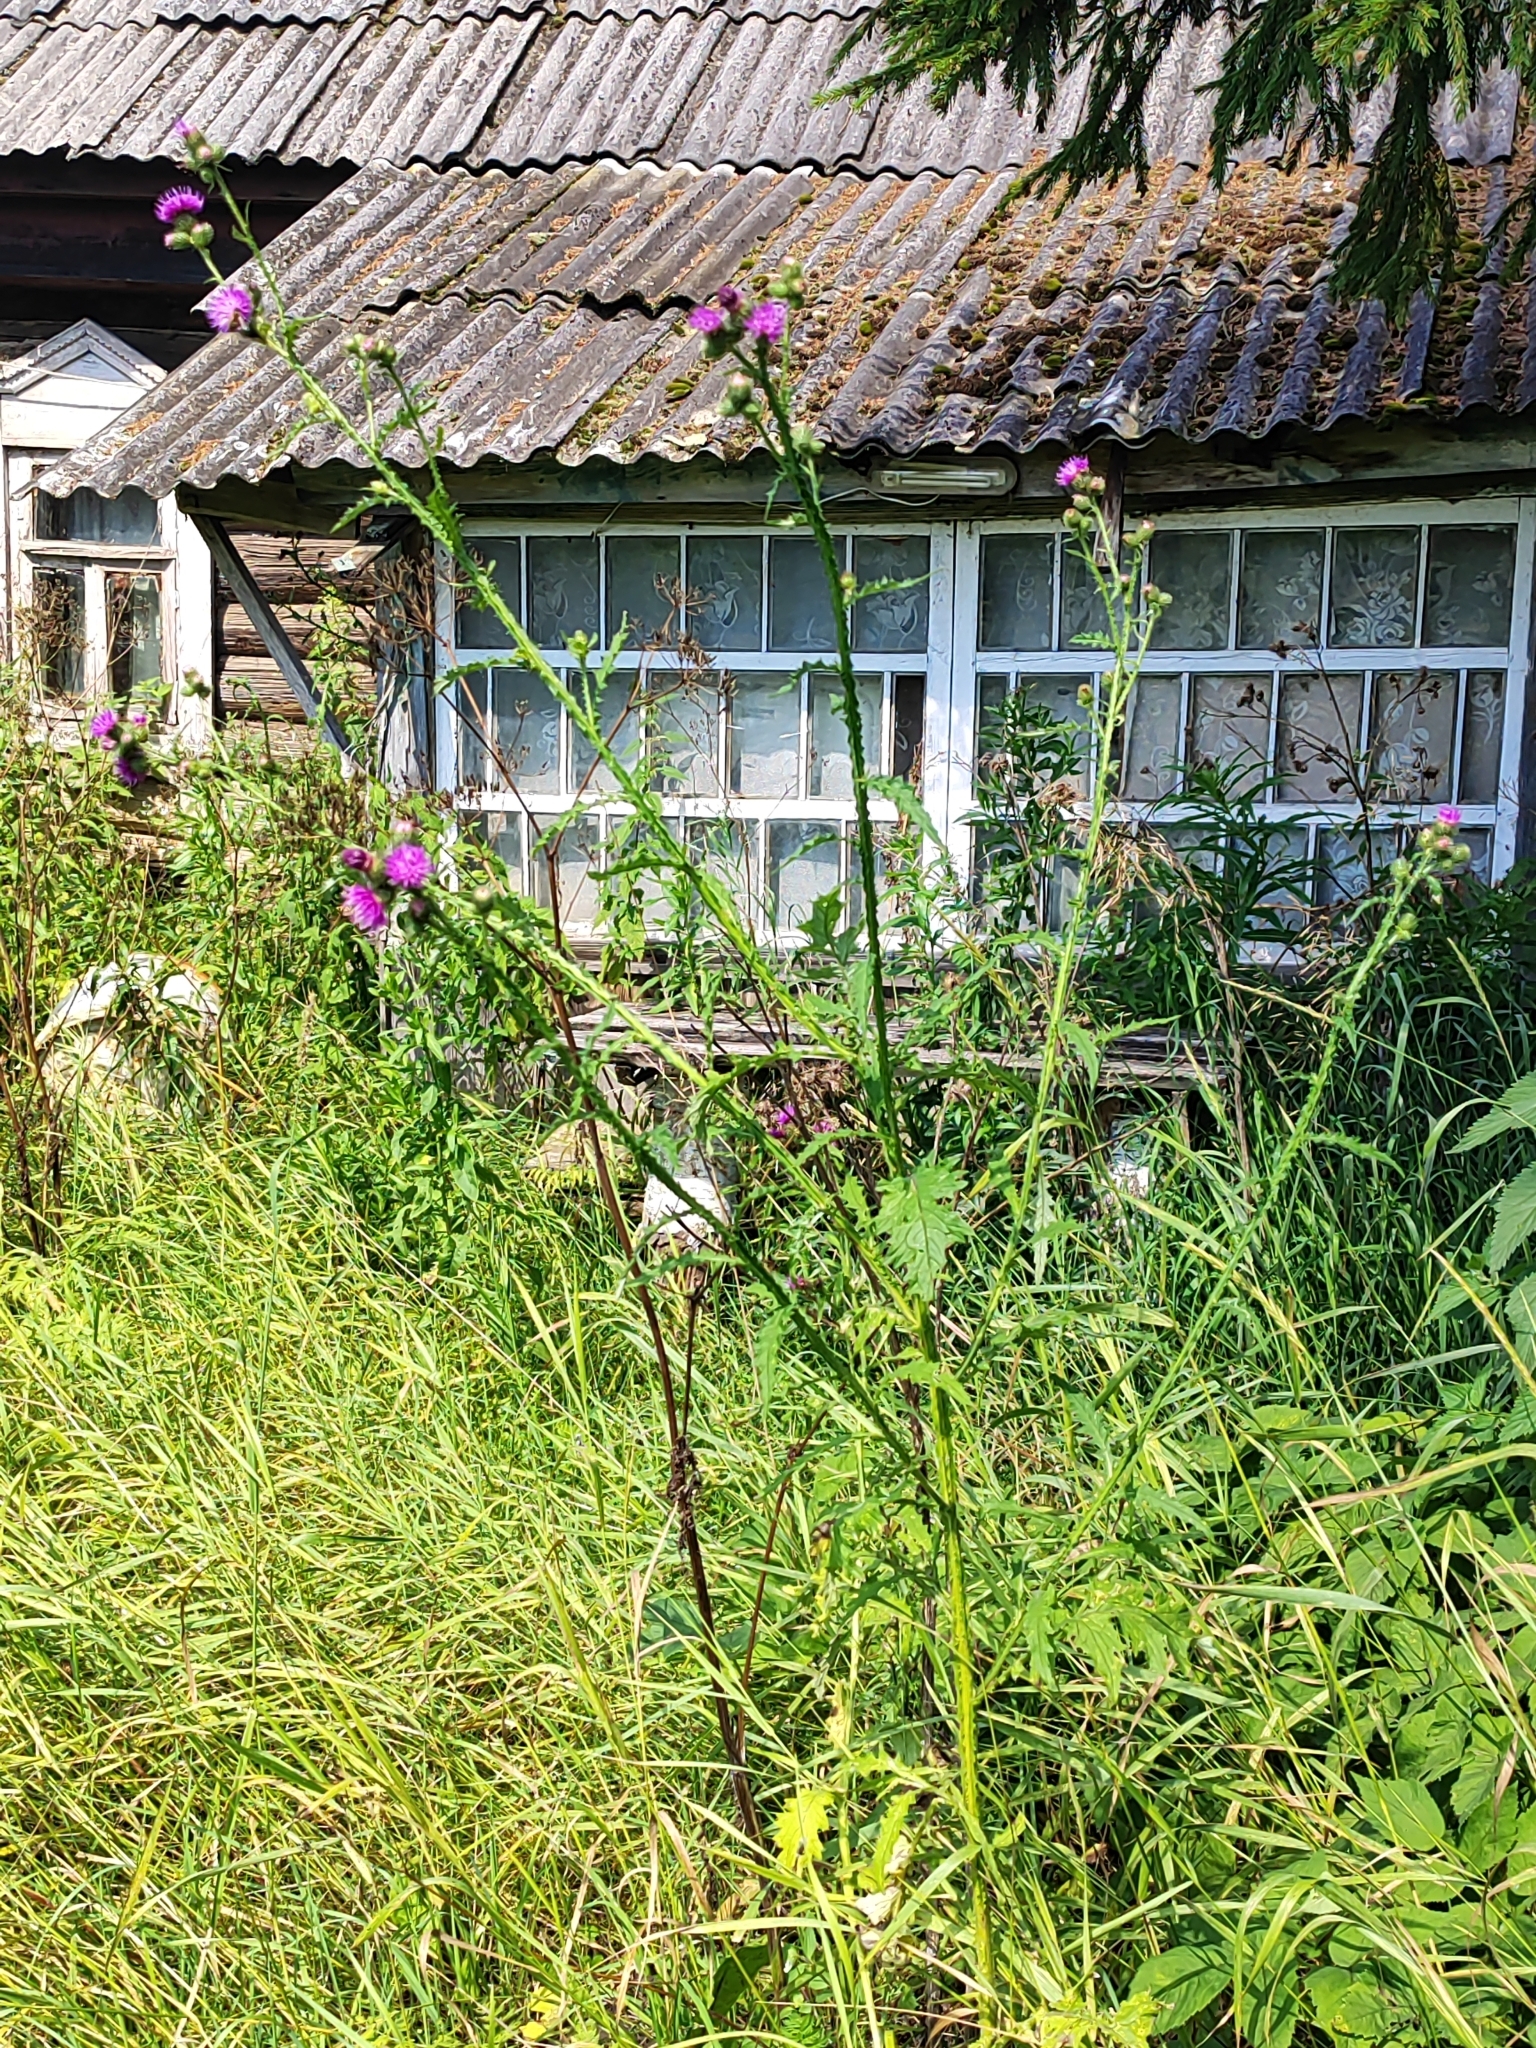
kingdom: Plantae
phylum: Tracheophyta
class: Magnoliopsida
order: Asterales
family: Asteraceae
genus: Carduus
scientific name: Carduus crispus
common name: Welted thistle
